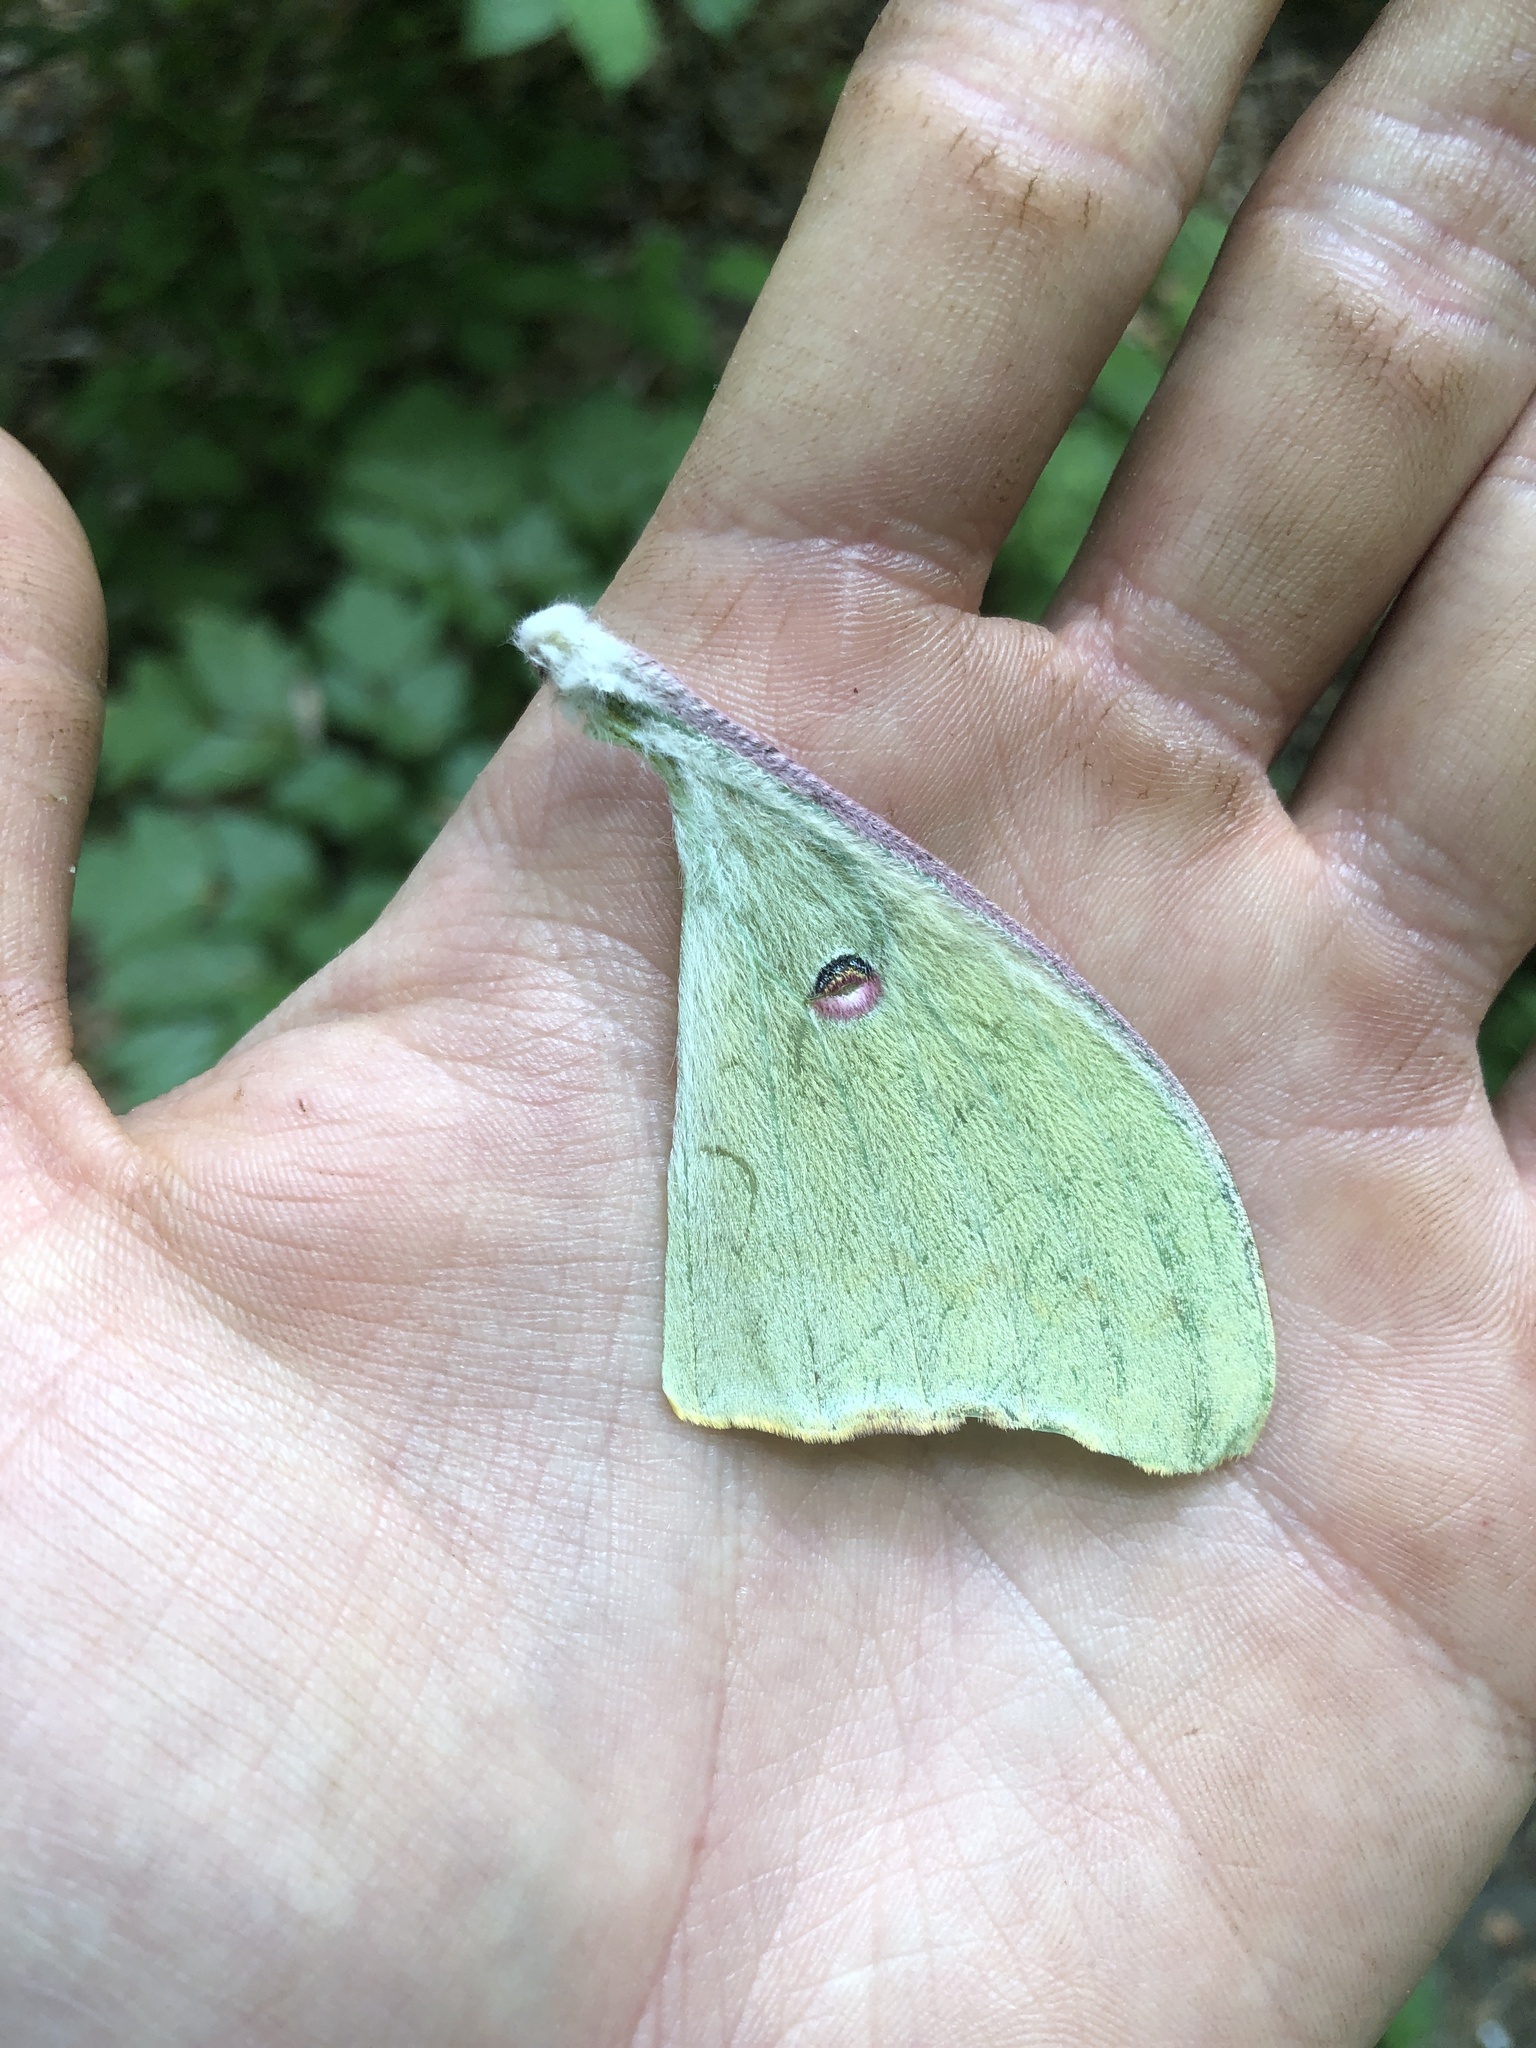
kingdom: Animalia
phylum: Arthropoda
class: Insecta
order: Lepidoptera
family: Saturniidae
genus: Actias
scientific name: Actias luna
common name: Luna moth
